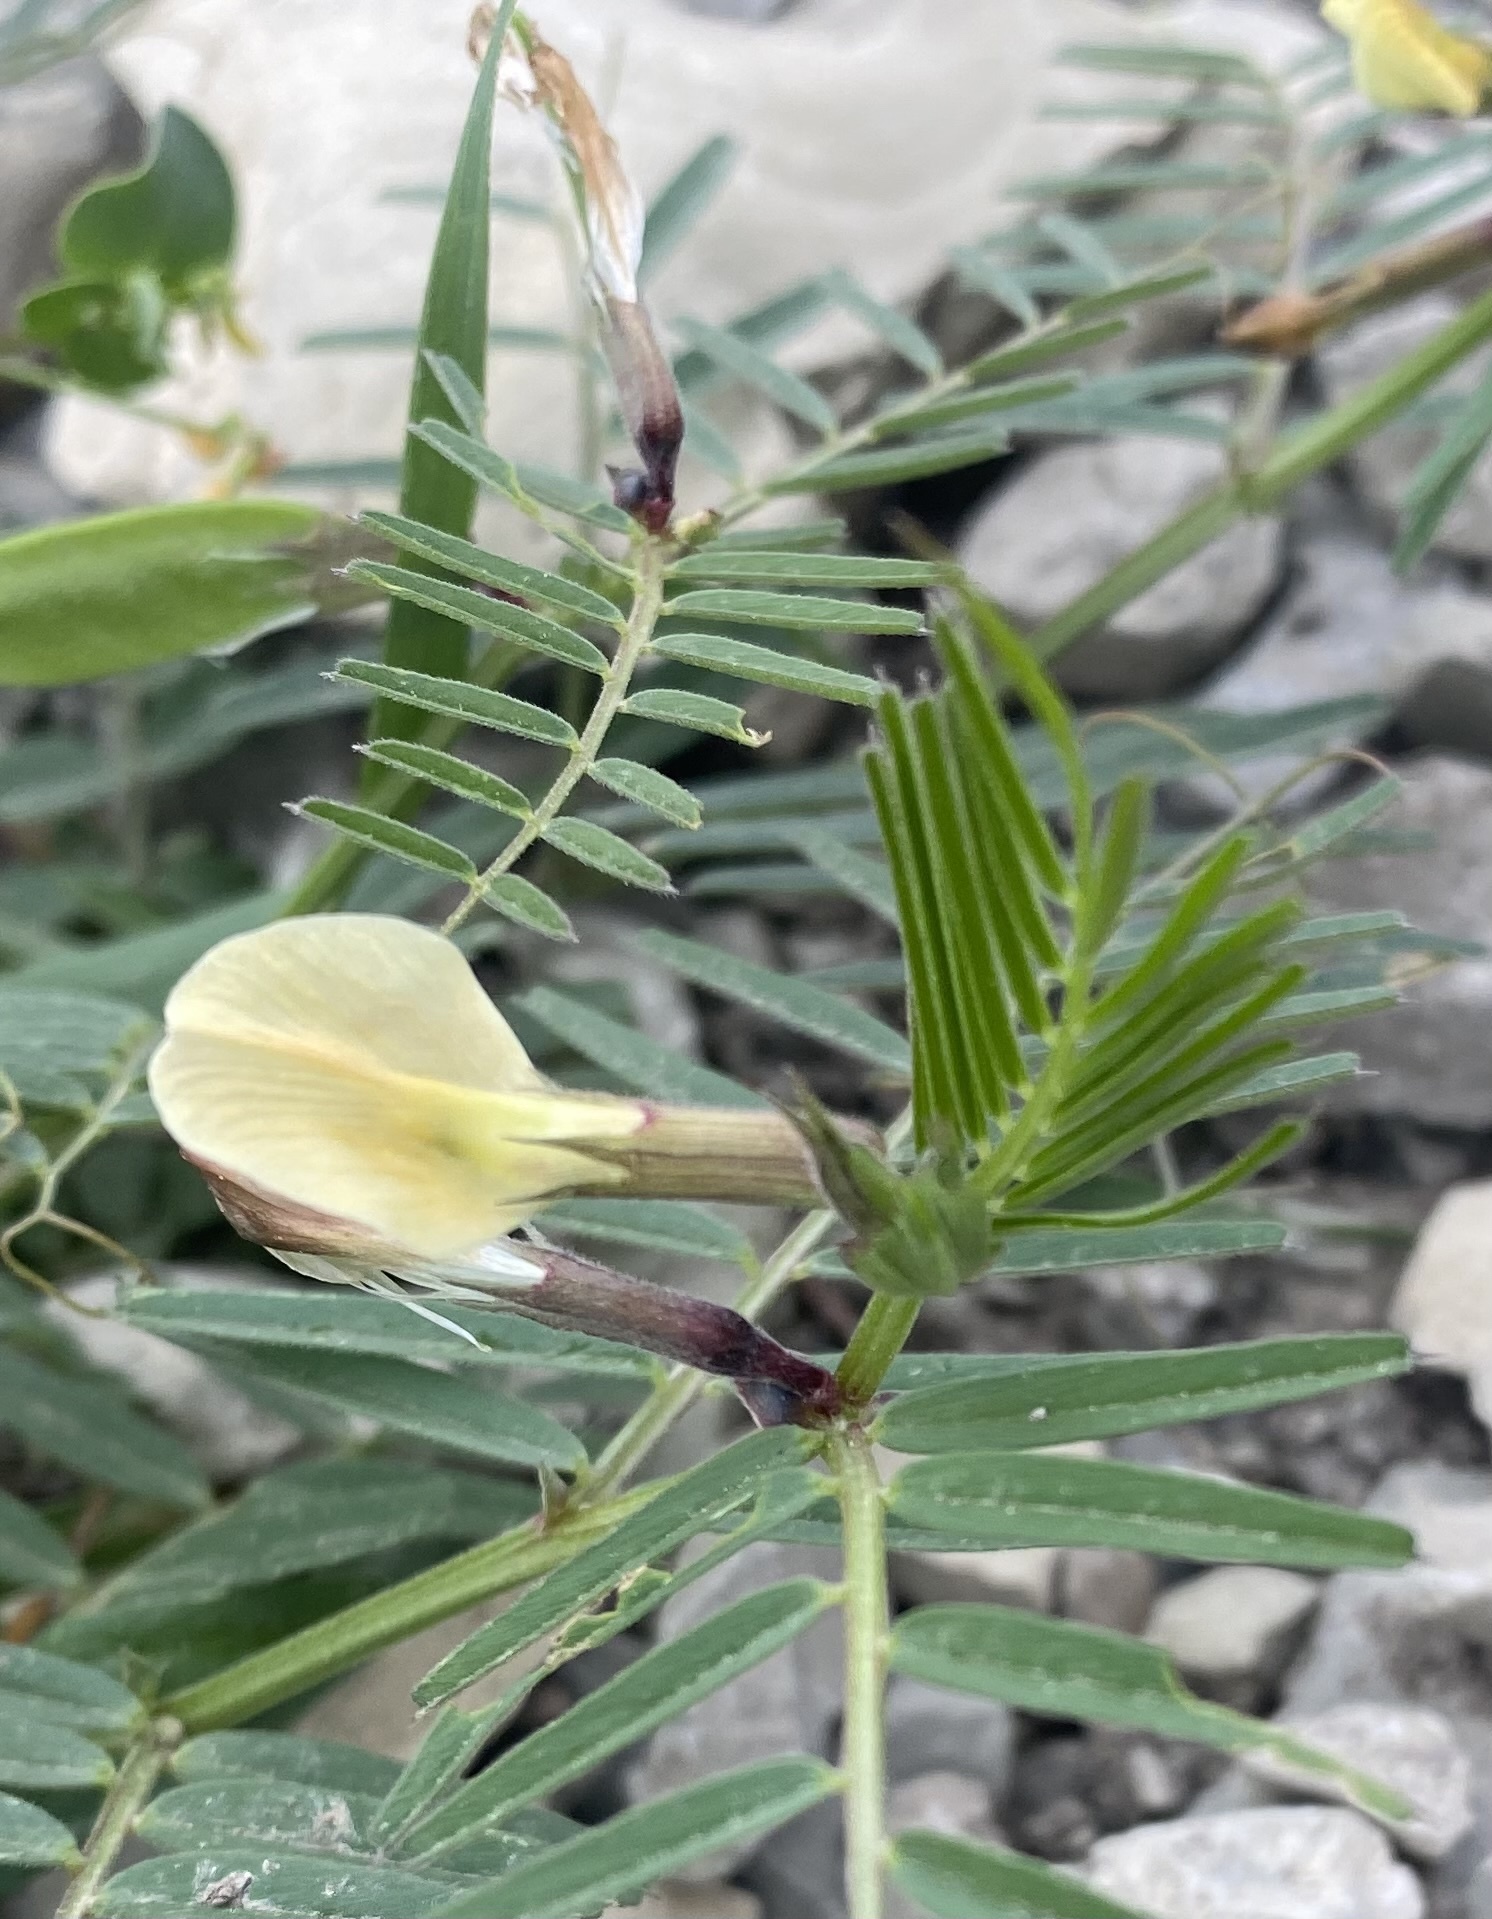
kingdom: Plantae
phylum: Tracheophyta
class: Magnoliopsida
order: Fabales
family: Fabaceae
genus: Vicia
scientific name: Vicia grandiflora
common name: Large yellow vetch
